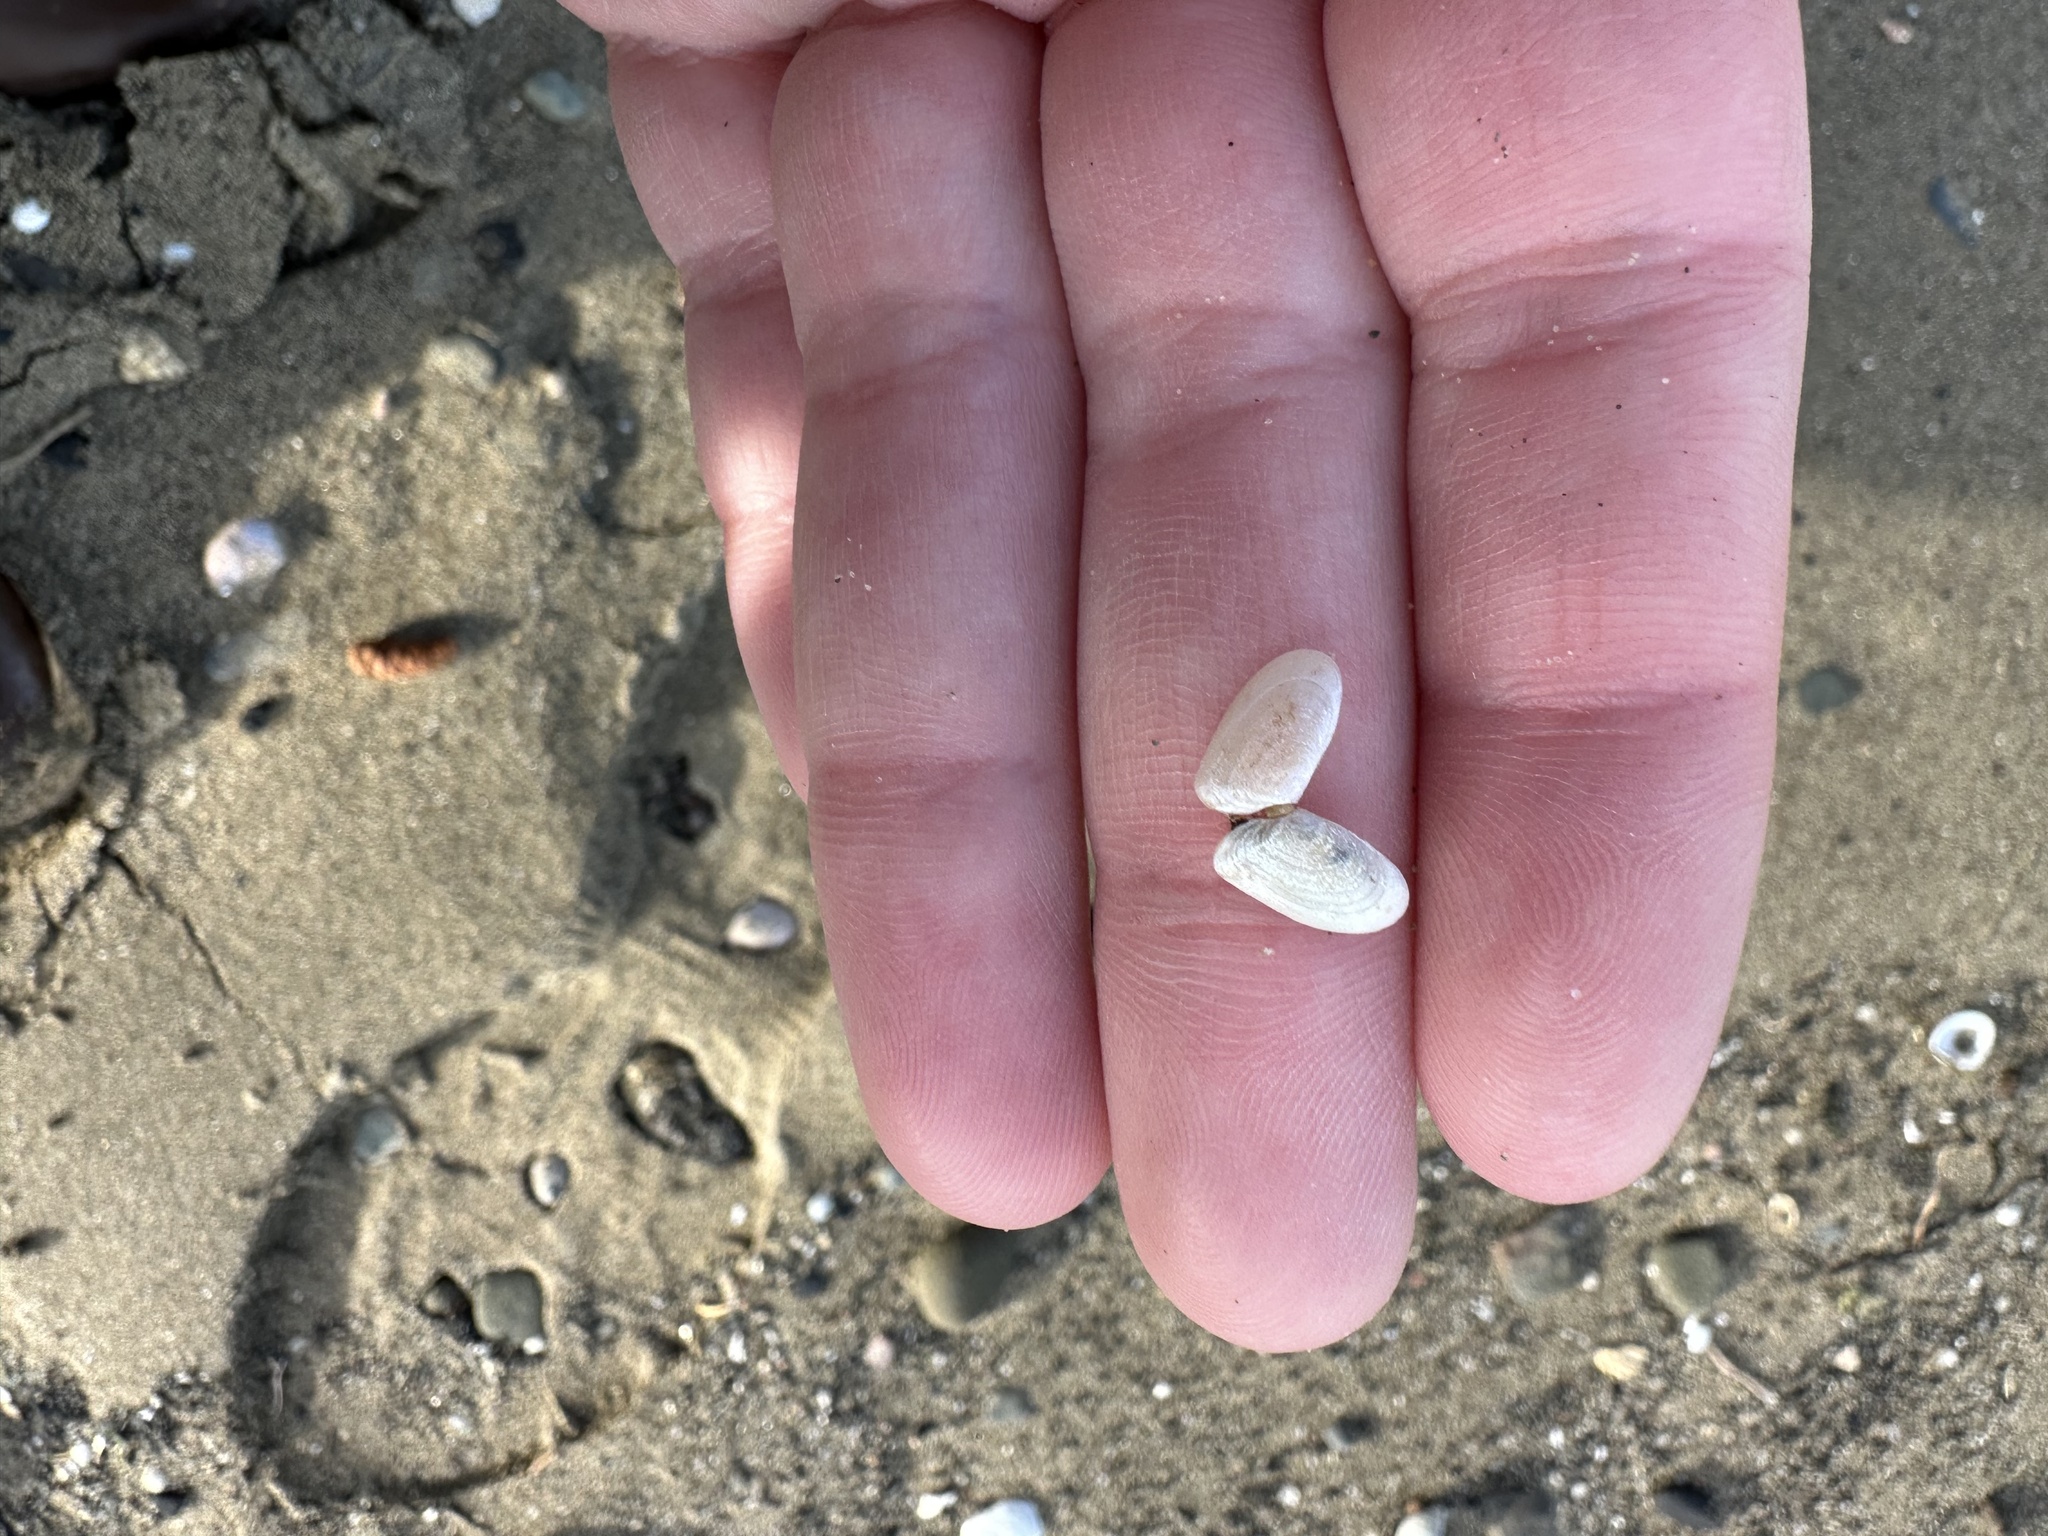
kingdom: Animalia
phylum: Mollusca
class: Bivalvia
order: Cardiida
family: Tellinidae
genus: Ameritella
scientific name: Ameritella agilis
